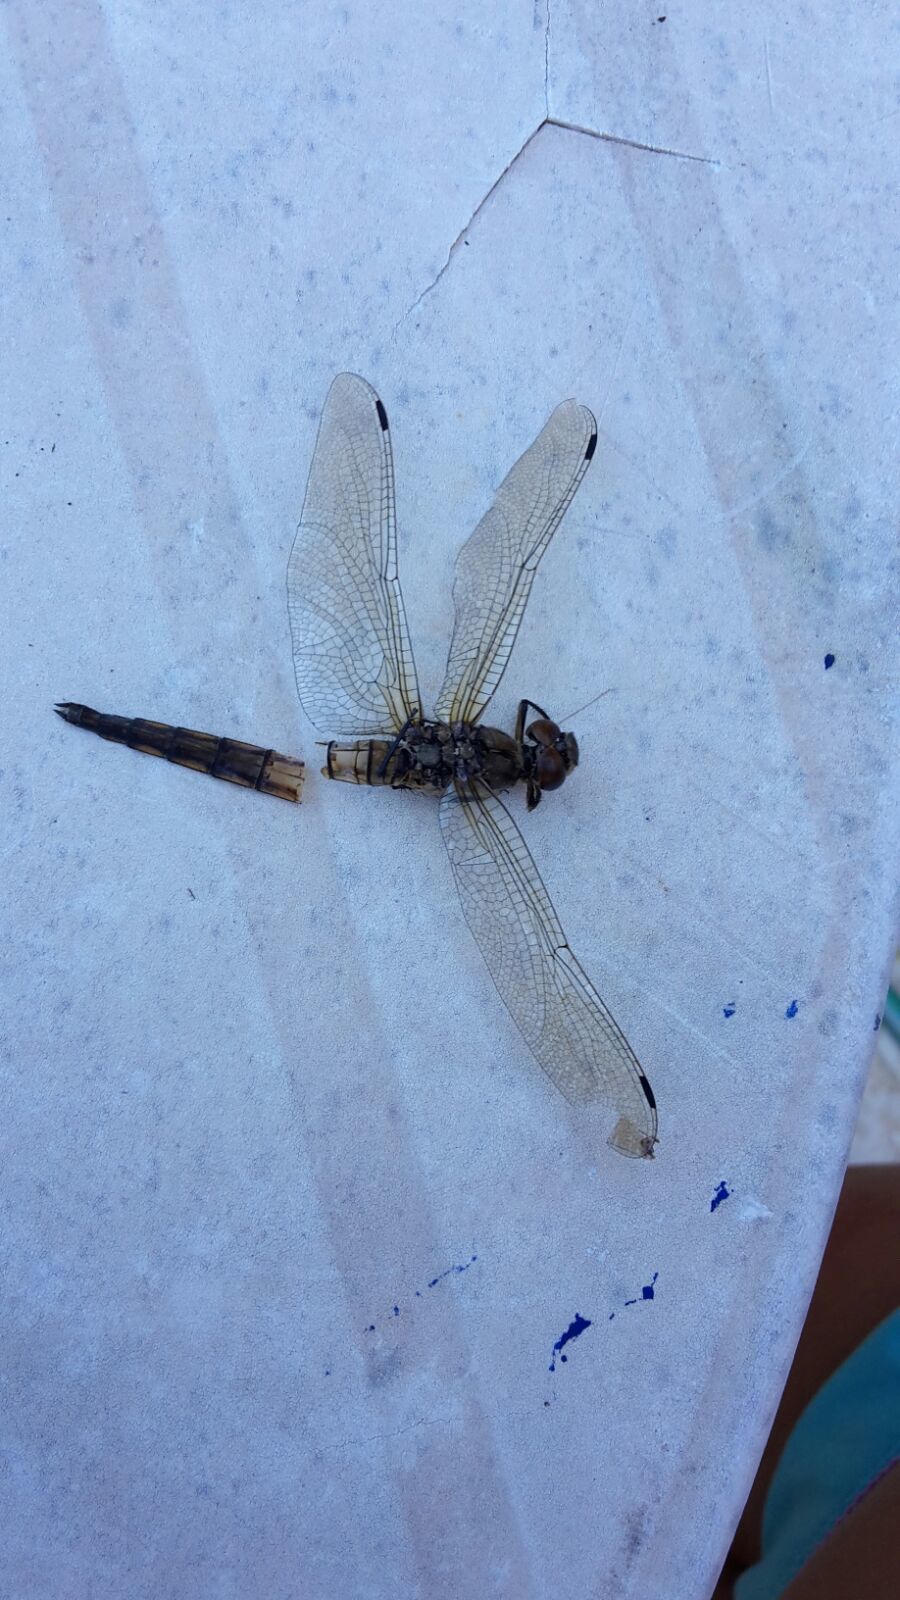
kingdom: Animalia
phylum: Arthropoda
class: Insecta
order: Odonata
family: Libellulidae
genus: Orthetrum
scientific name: Orthetrum cancellatum
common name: Black-tailed skimmer
